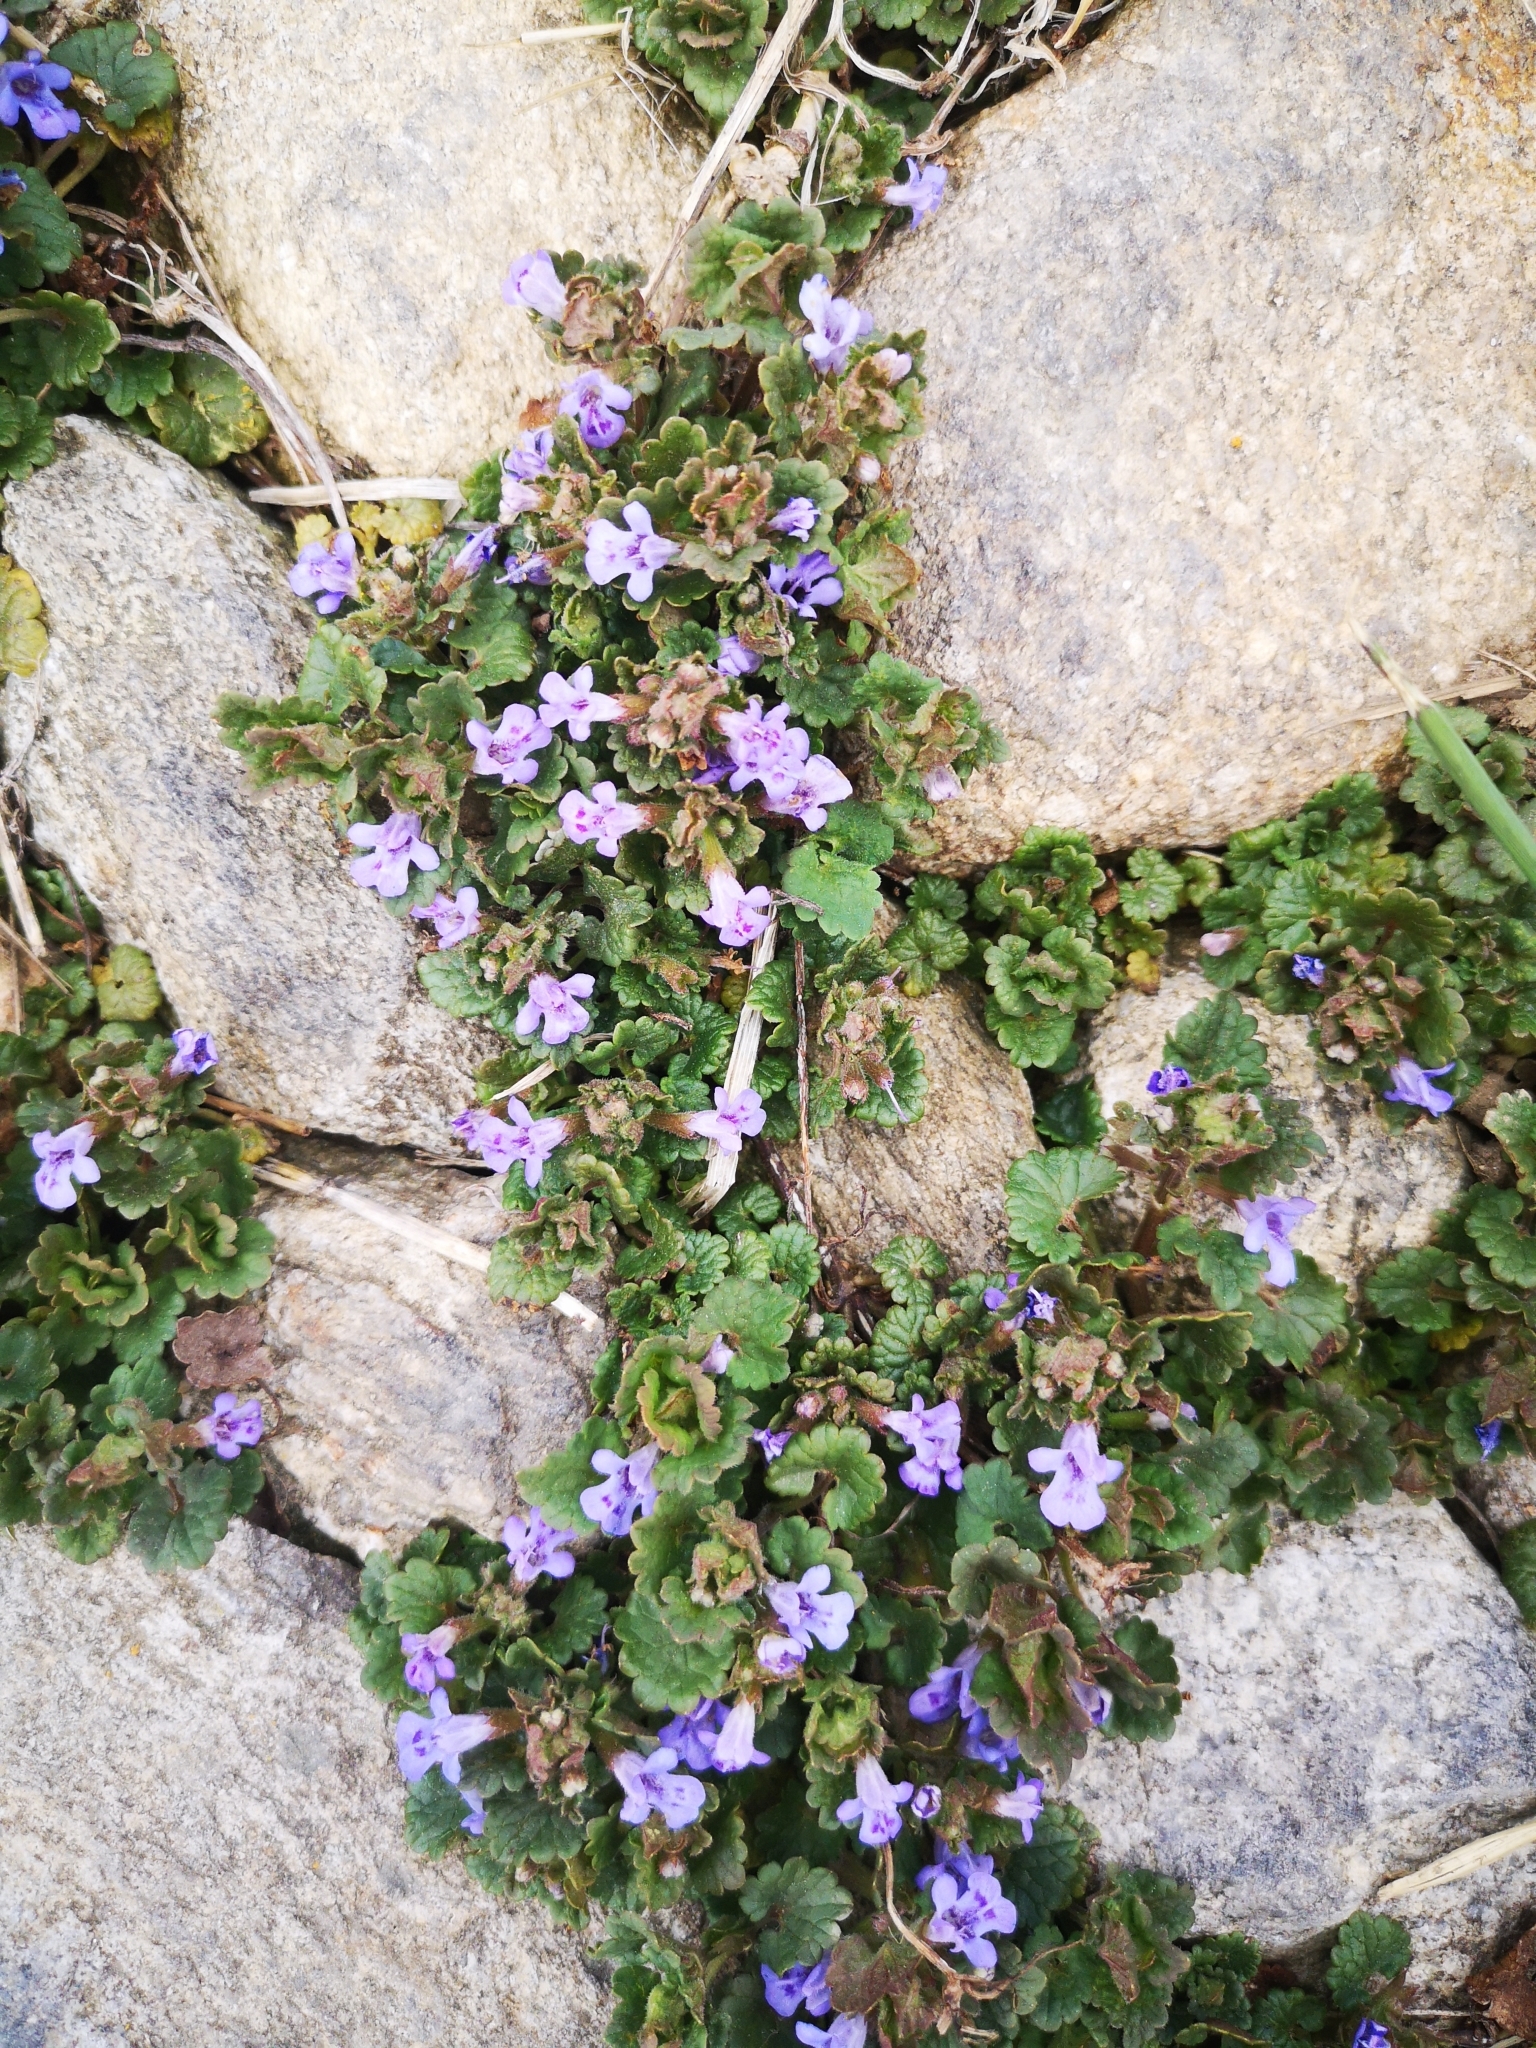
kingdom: Plantae
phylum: Tracheophyta
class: Magnoliopsida
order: Lamiales
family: Lamiaceae
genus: Glechoma
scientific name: Glechoma hederacea
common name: Ground ivy
